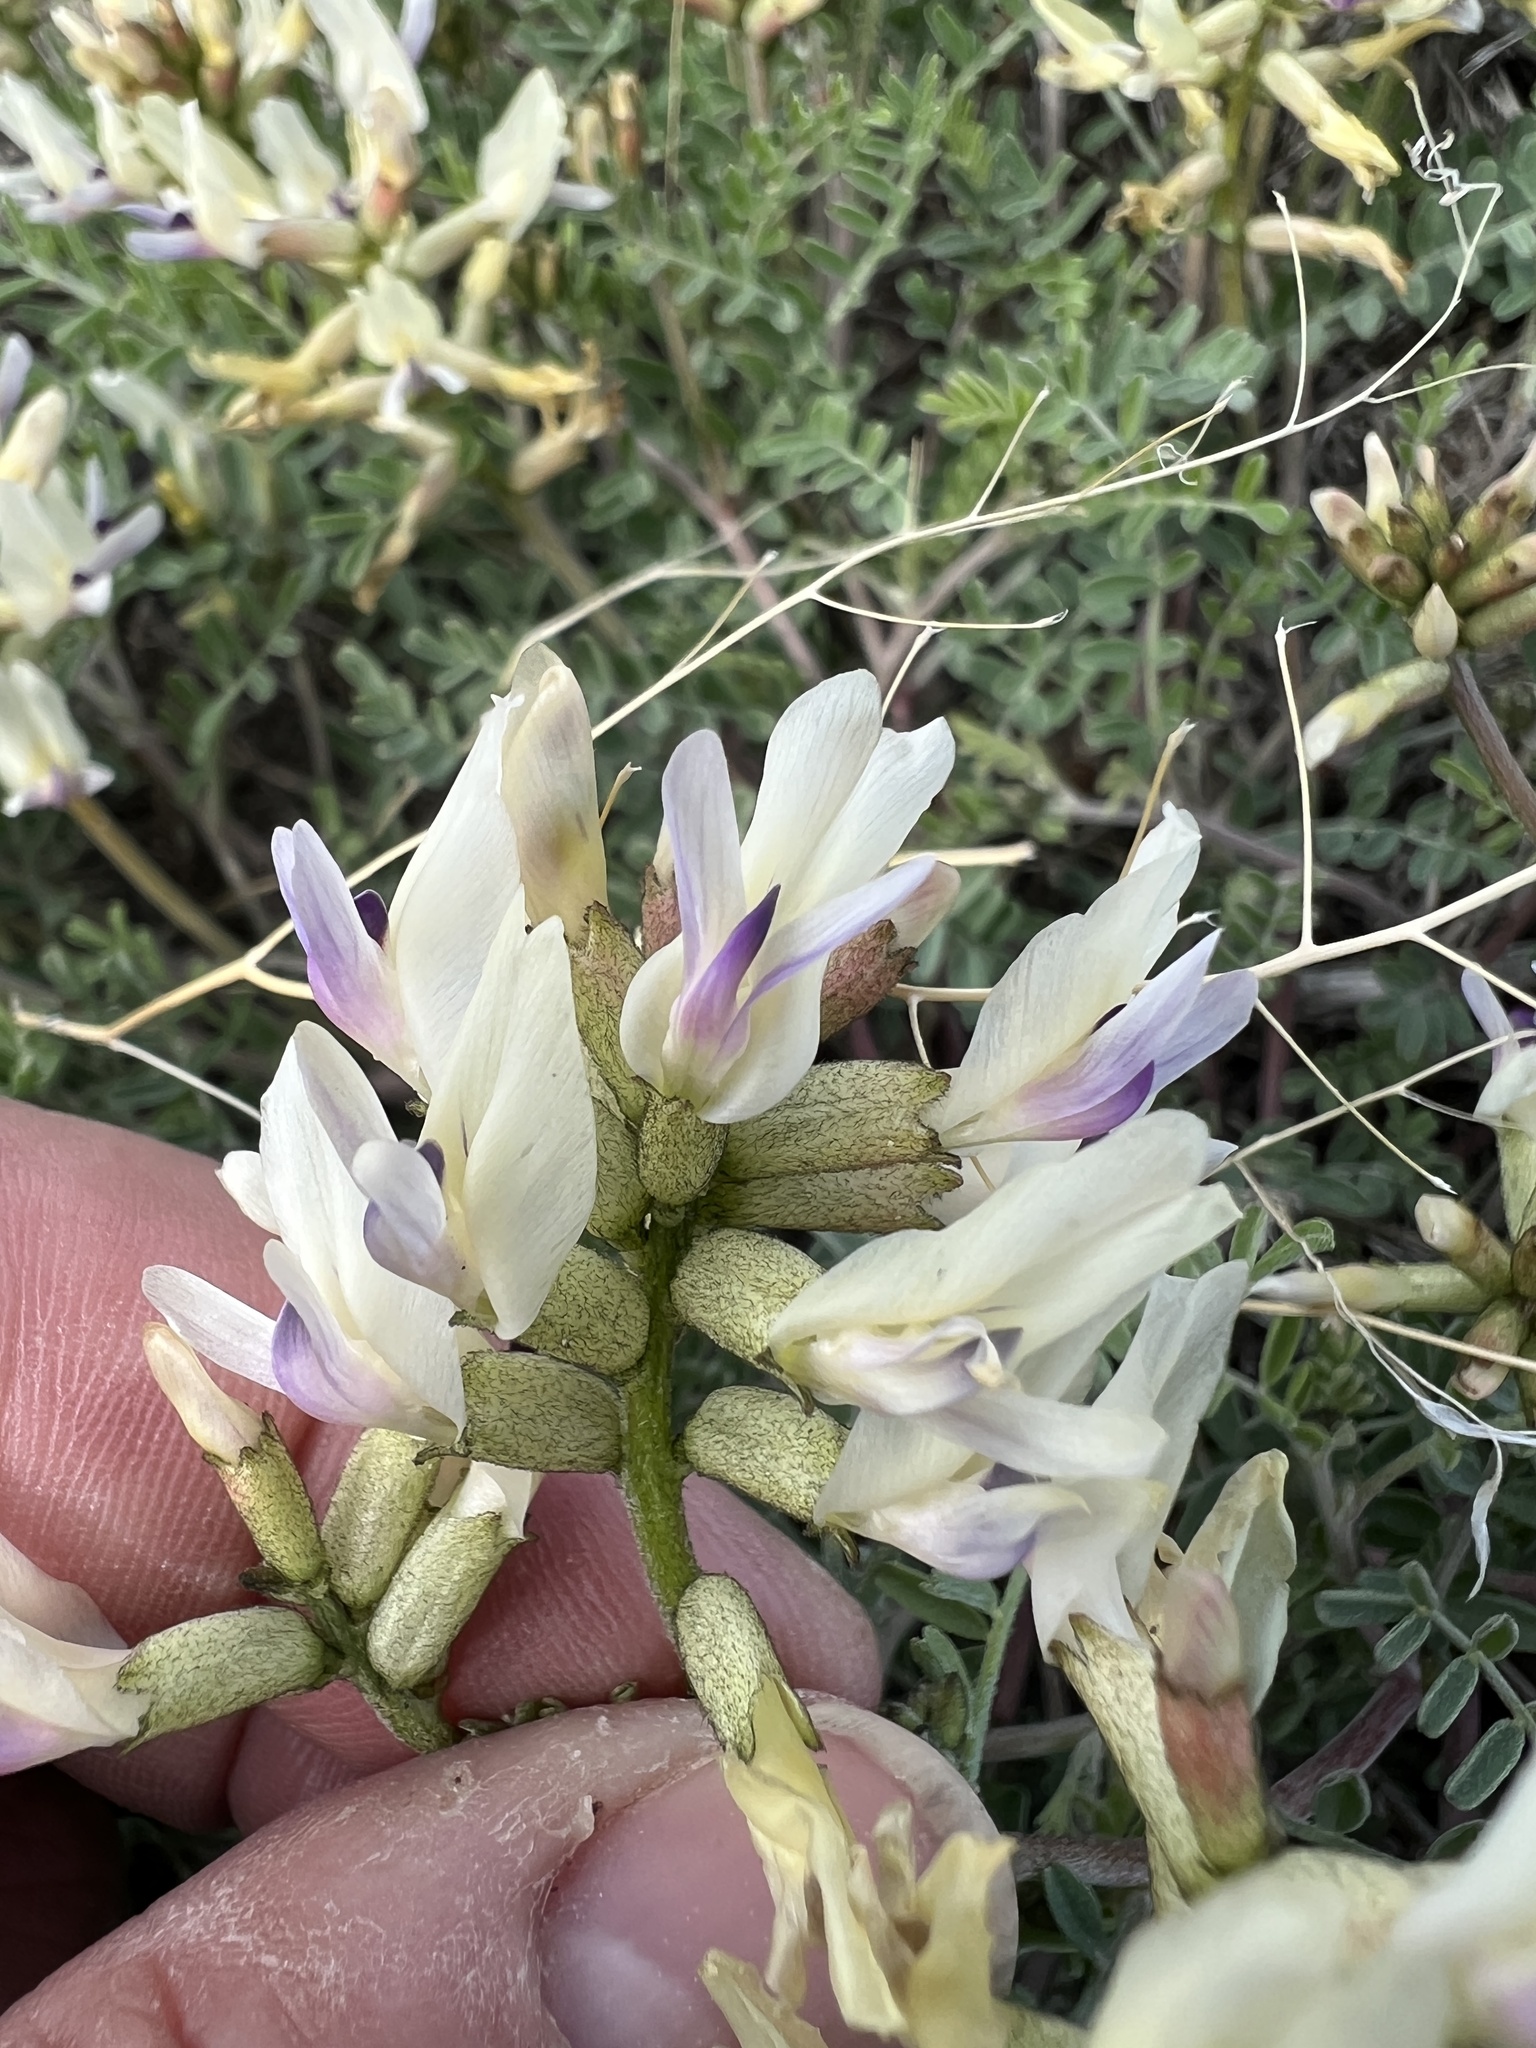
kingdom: Plantae
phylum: Tracheophyta
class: Magnoliopsida
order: Fabales
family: Fabaceae
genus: Astragalus
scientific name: Astragalus speirocarpus
